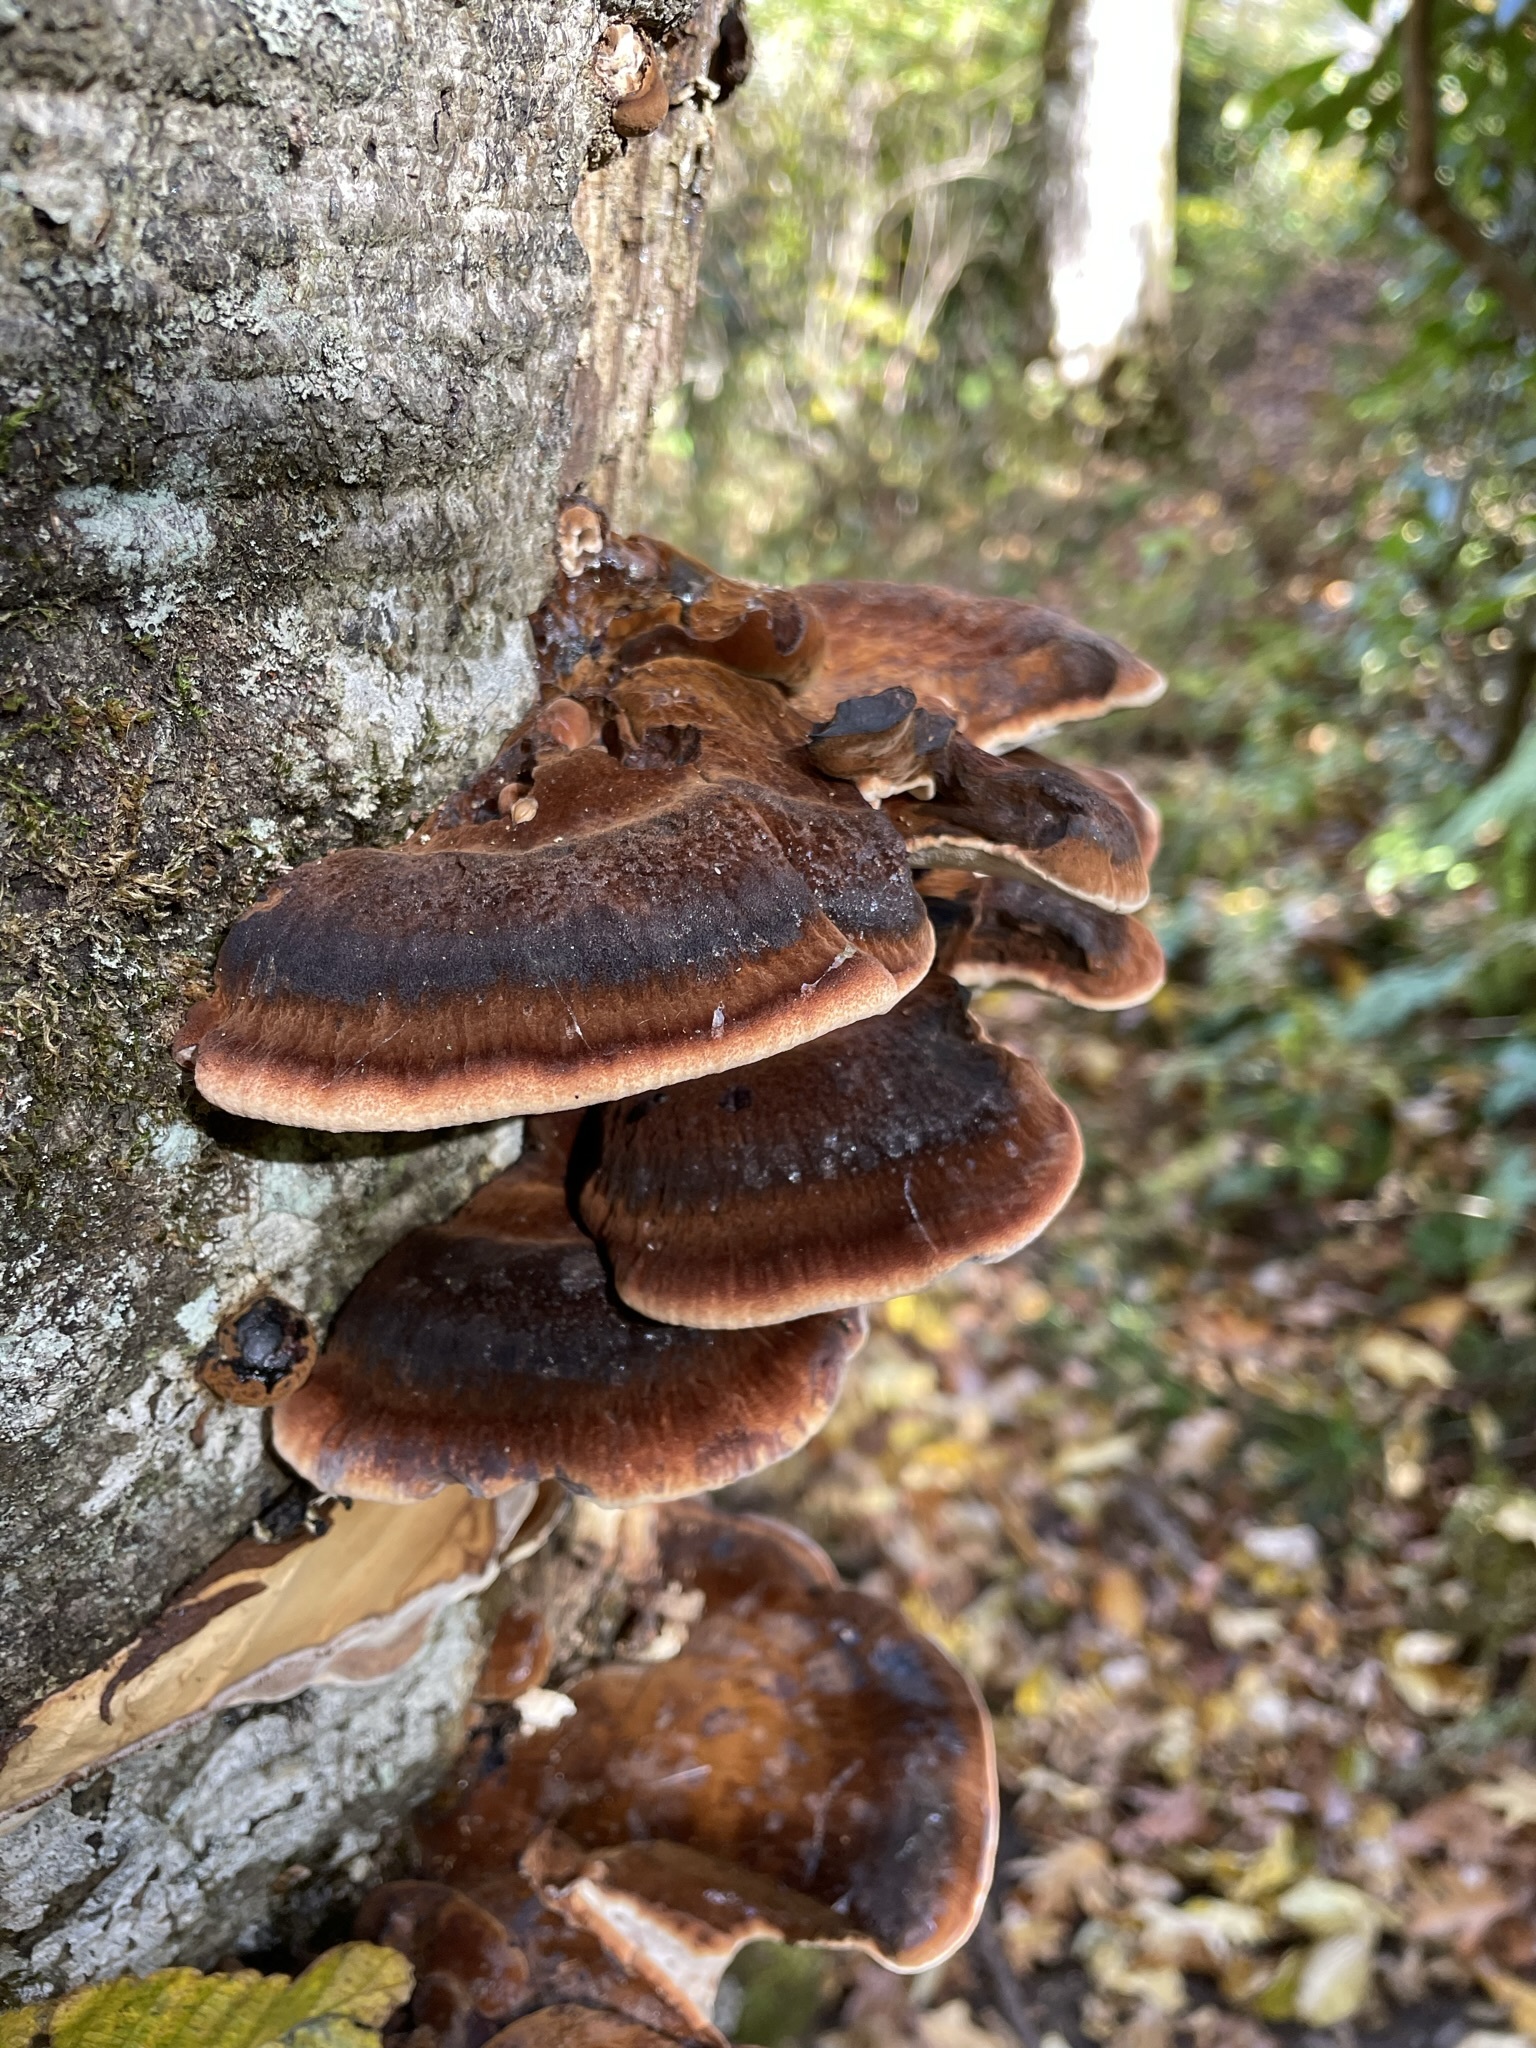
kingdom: Fungi
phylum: Basidiomycota
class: Agaricomycetes
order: Polyporales
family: Ischnodermataceae
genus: Ischnoderma
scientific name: Ischnoderma resinosum
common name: Resinous polypore
